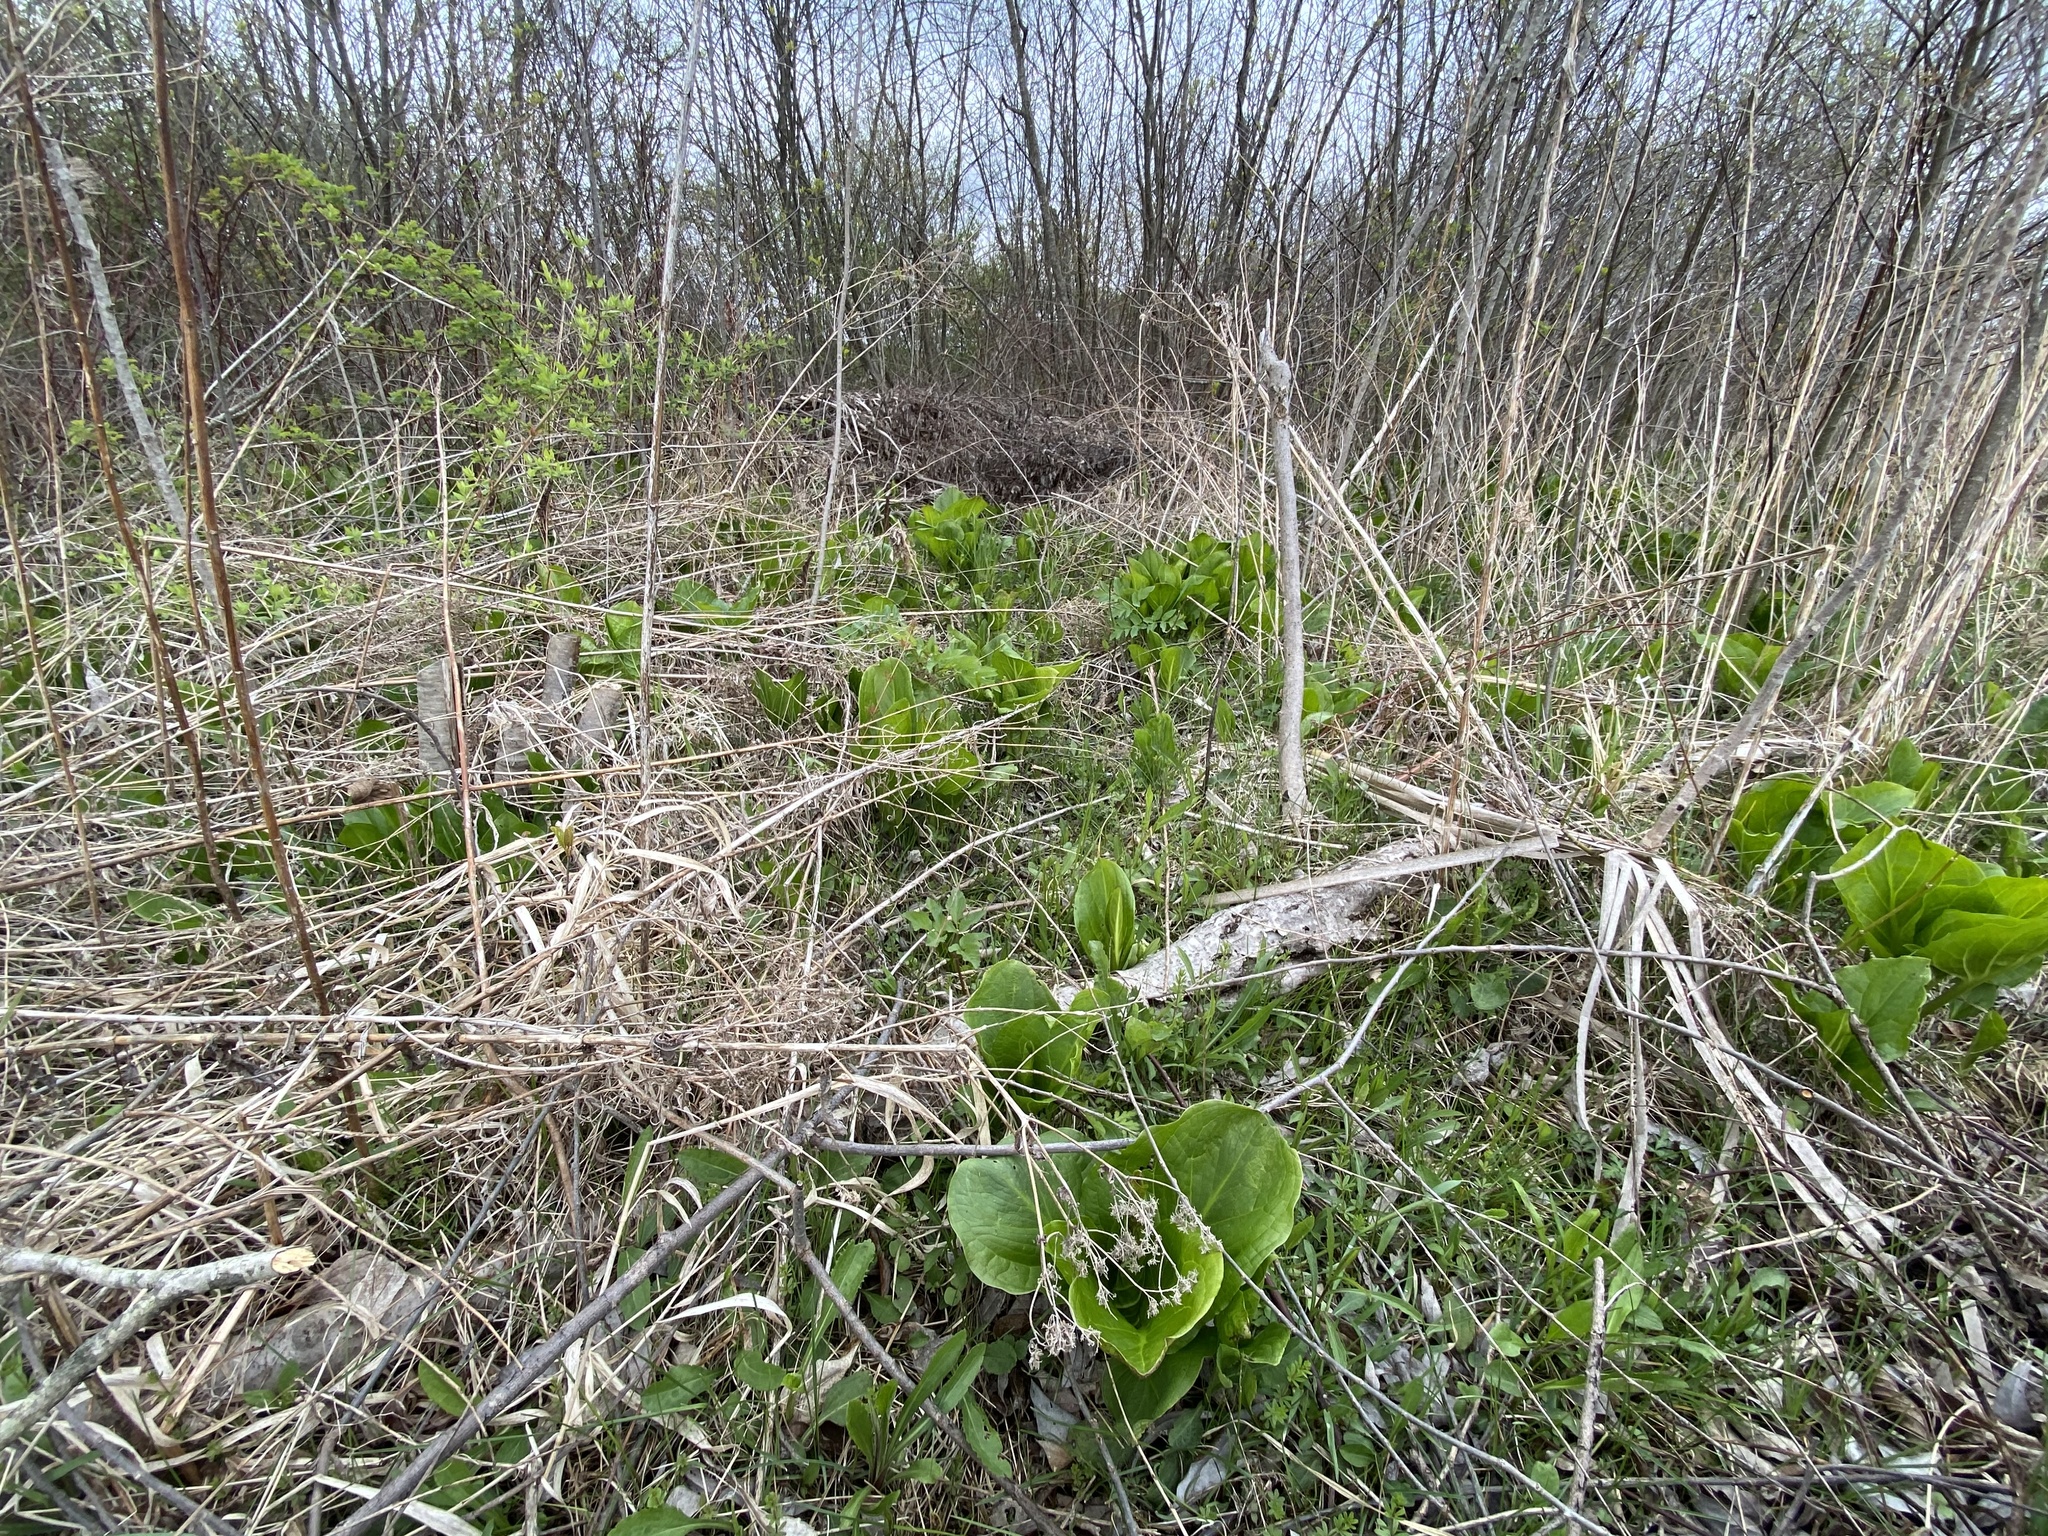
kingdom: Plantae
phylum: Tracheophyta
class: Liliopsida
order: Alismatales
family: Araceae
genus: Symplocarpus
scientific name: Symplocarpus foetidus
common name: Eastern skunk cabbage
